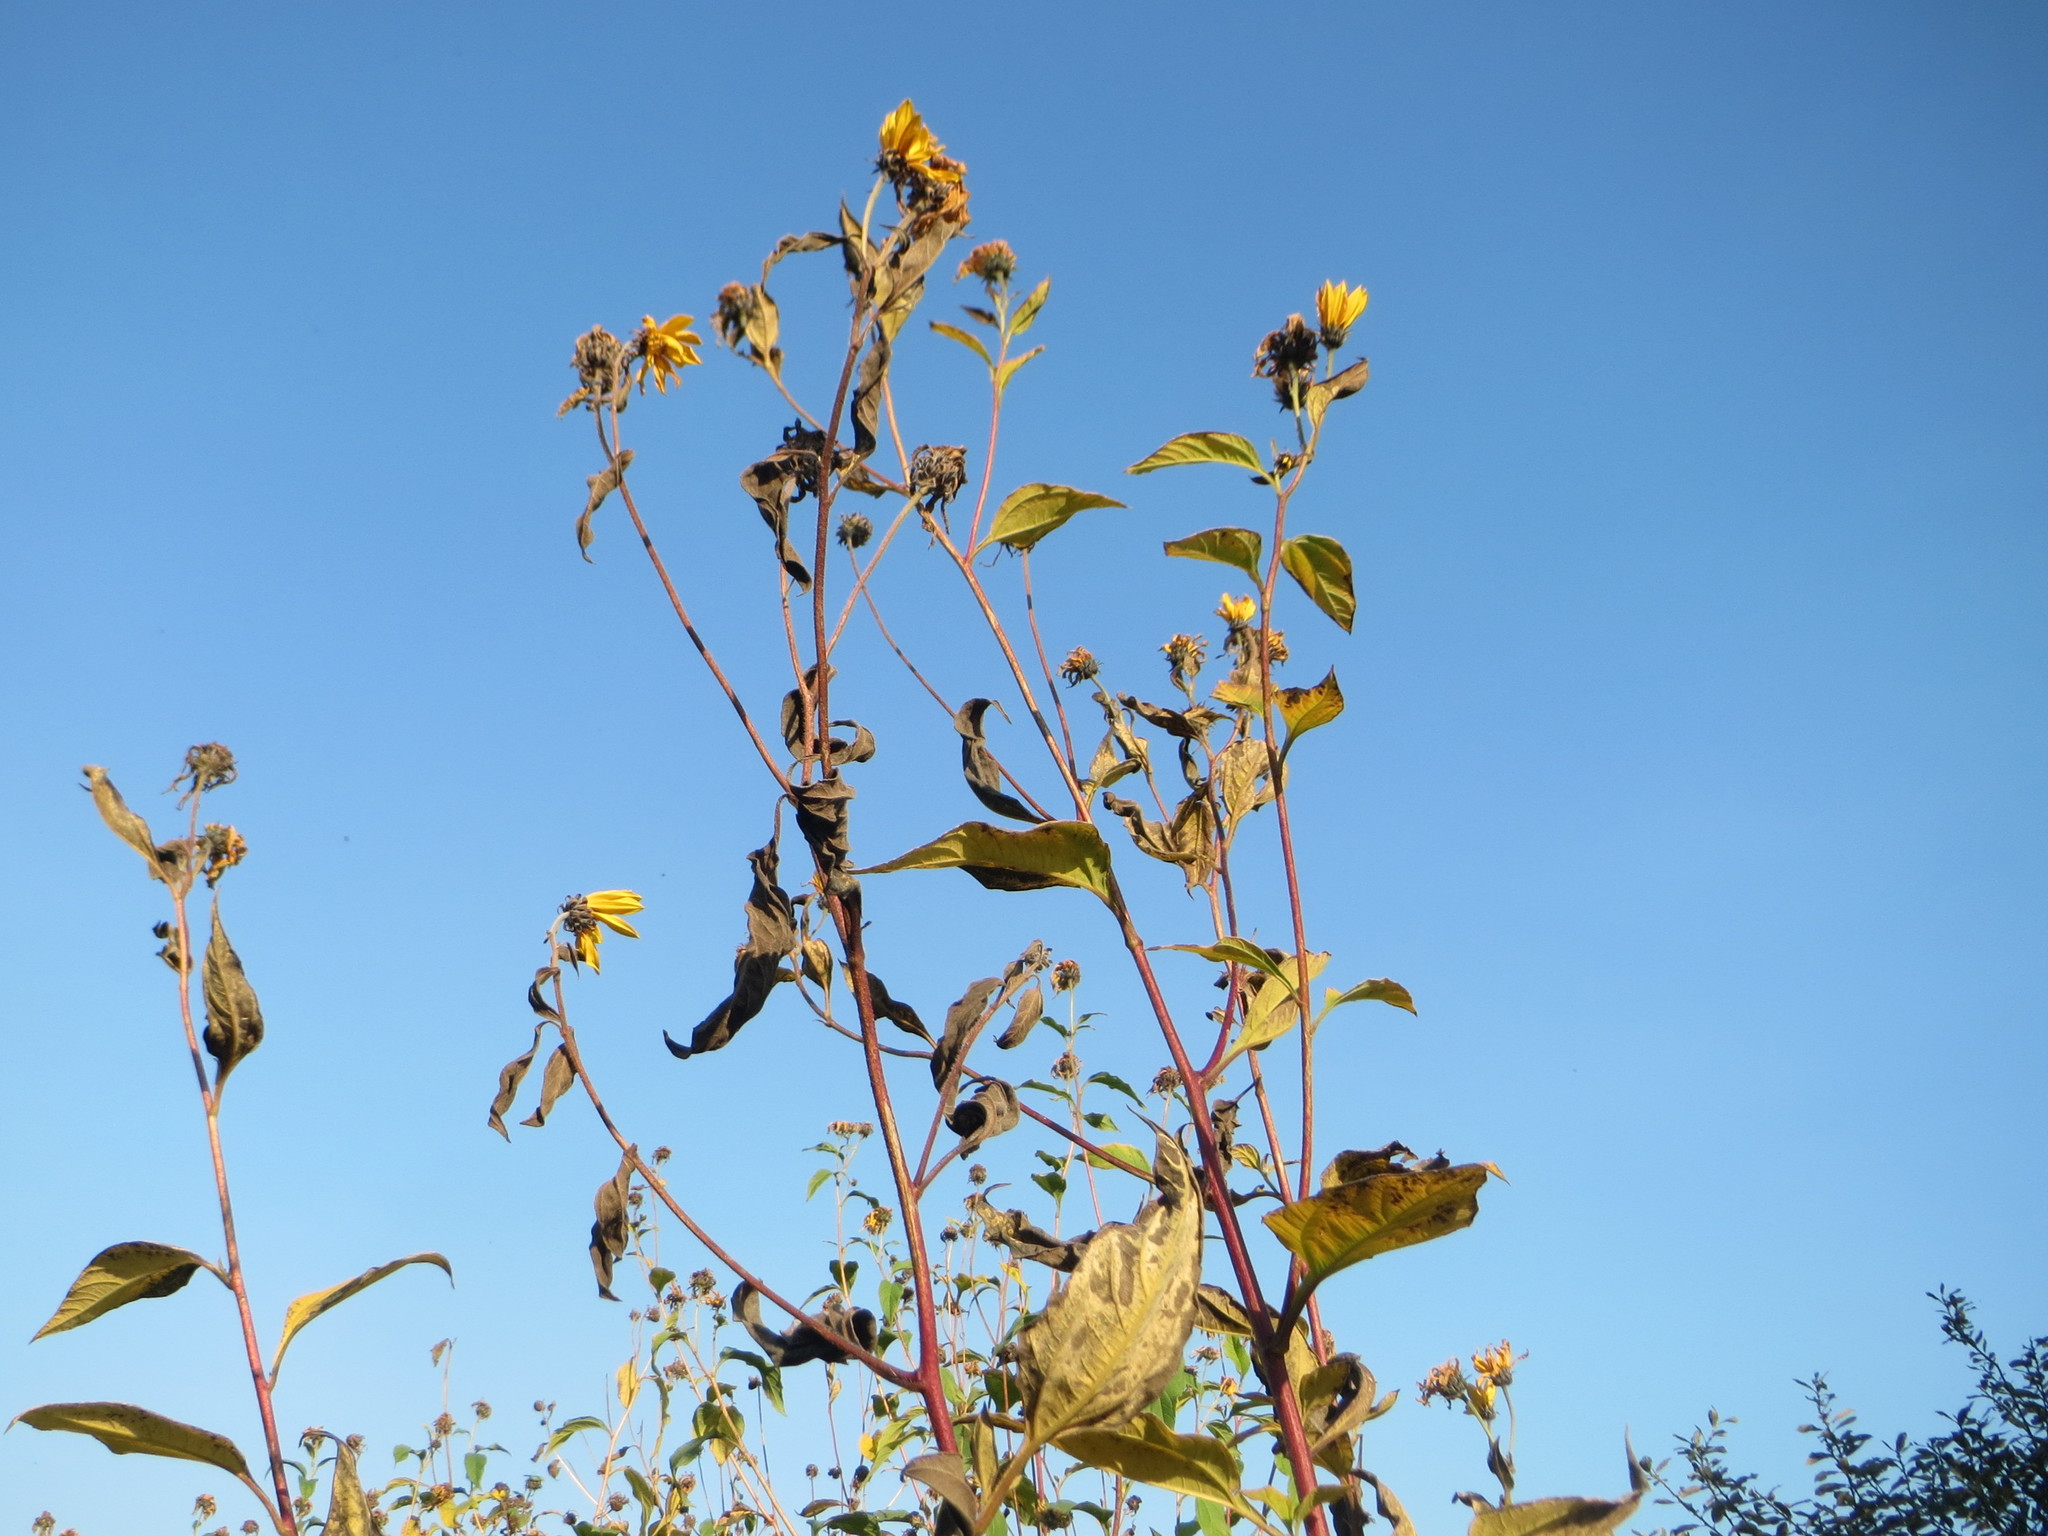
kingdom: Plantae
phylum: Tracheophyta
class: Magnoliopsida
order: Asterales
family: Asteraceae
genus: Helianthus
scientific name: Helianthus tuberosus
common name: Jerusalem artichoke
